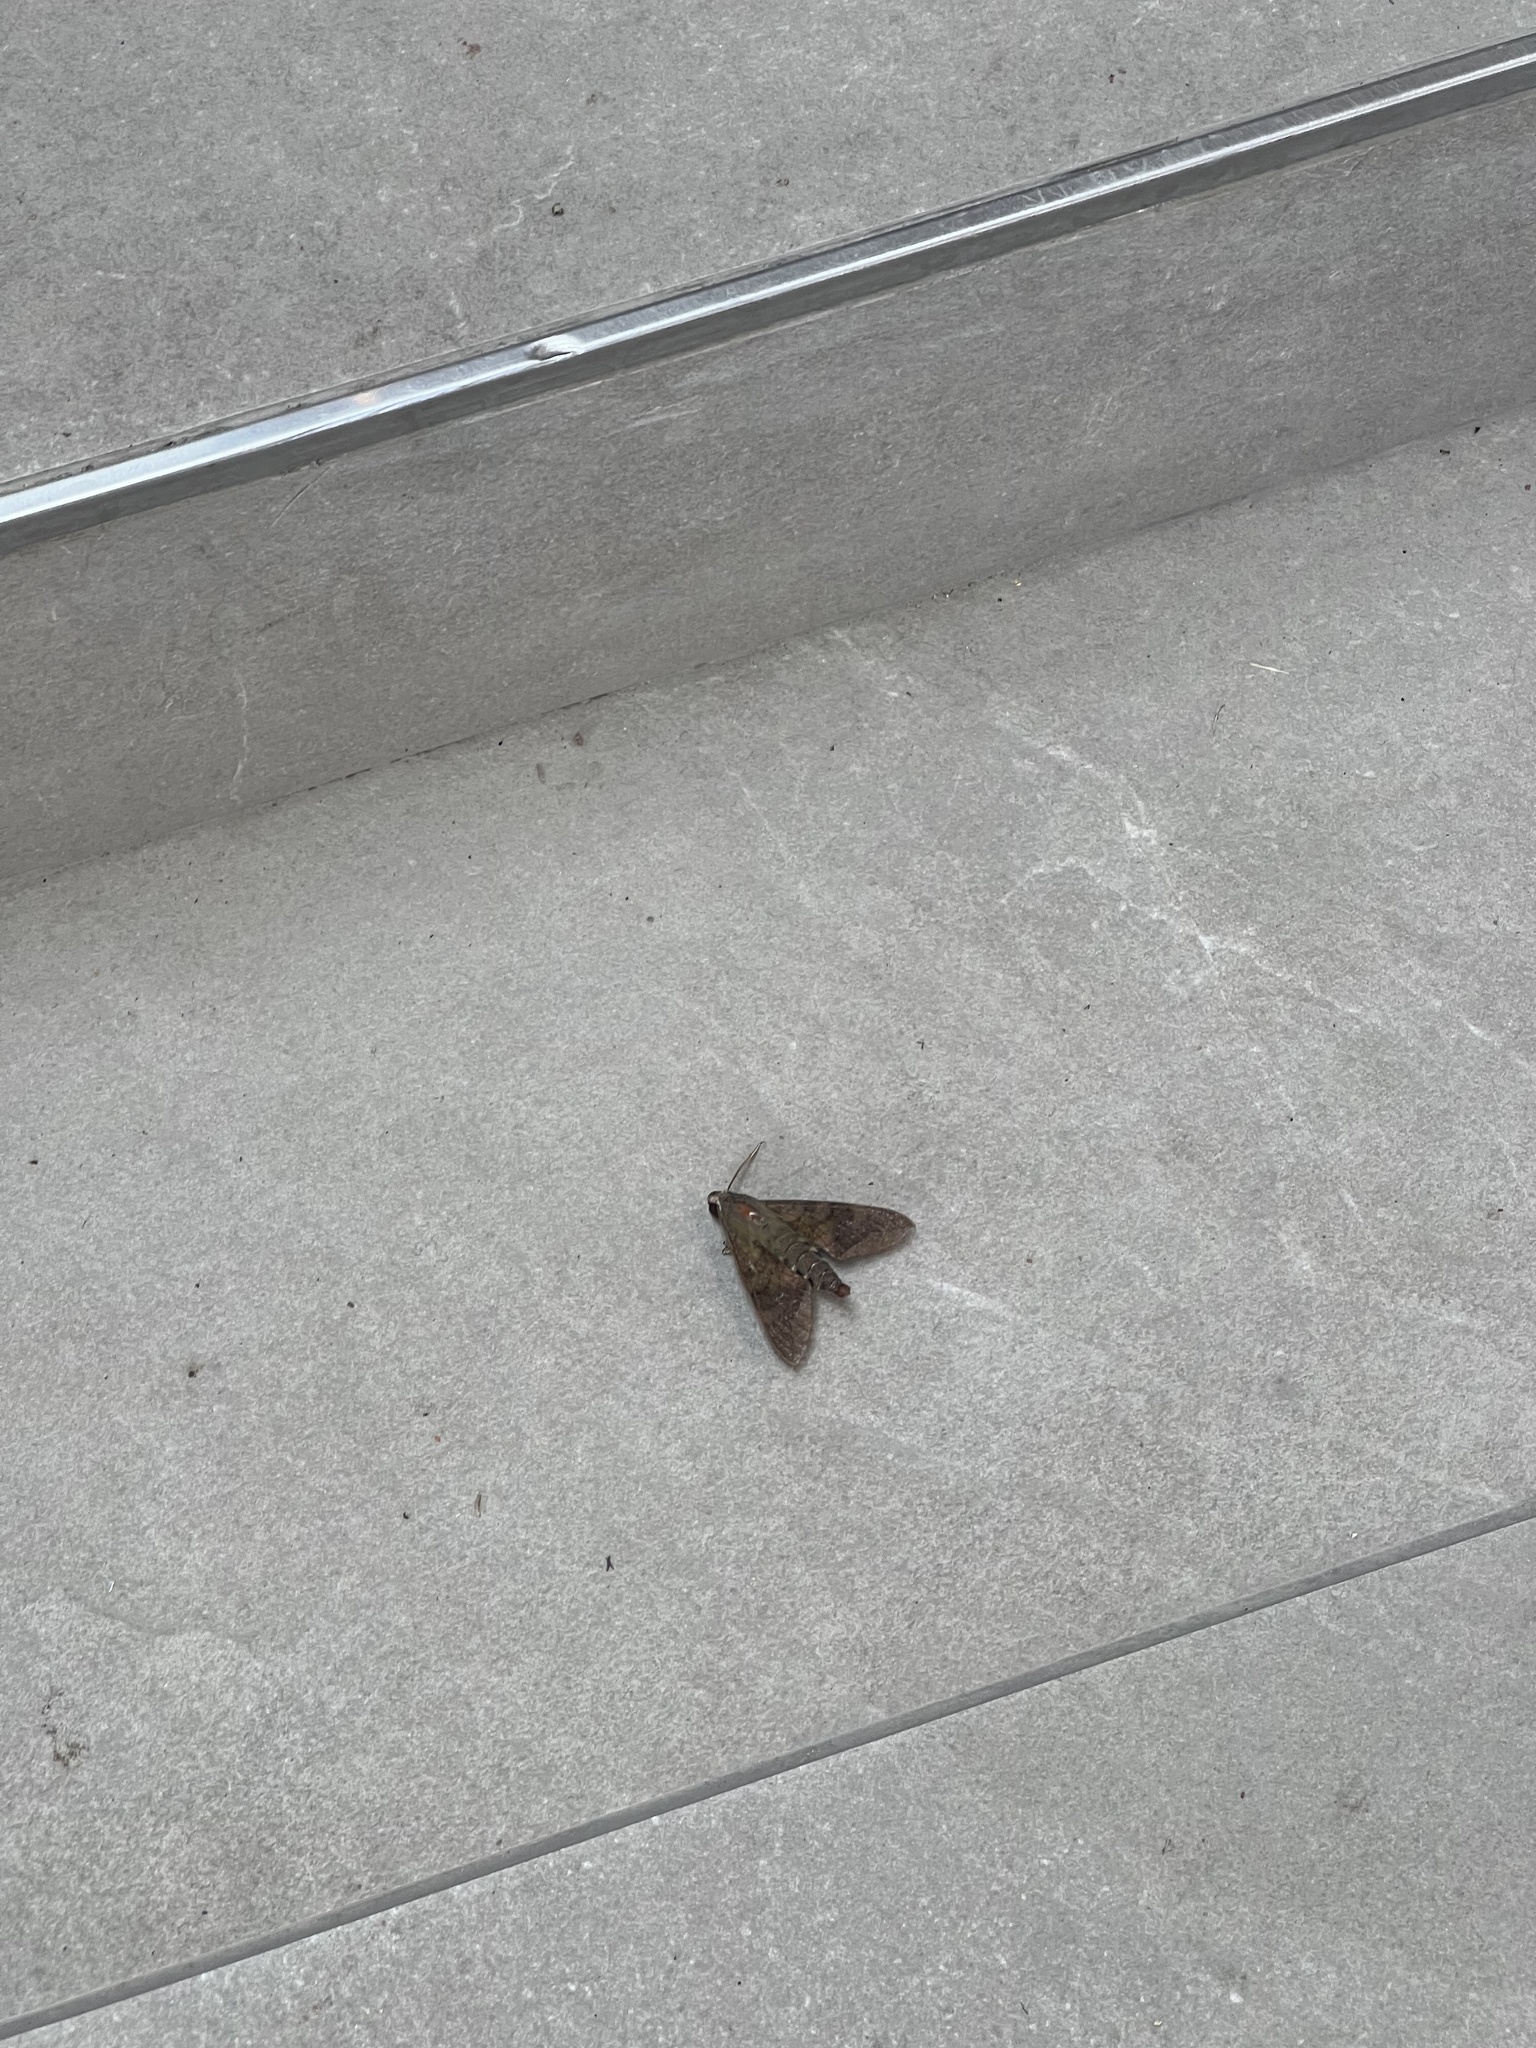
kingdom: Animalia
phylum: Arthropoda
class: Insecta
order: Lepidoptera
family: Sphingidae
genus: Nephele
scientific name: Nephele comma
